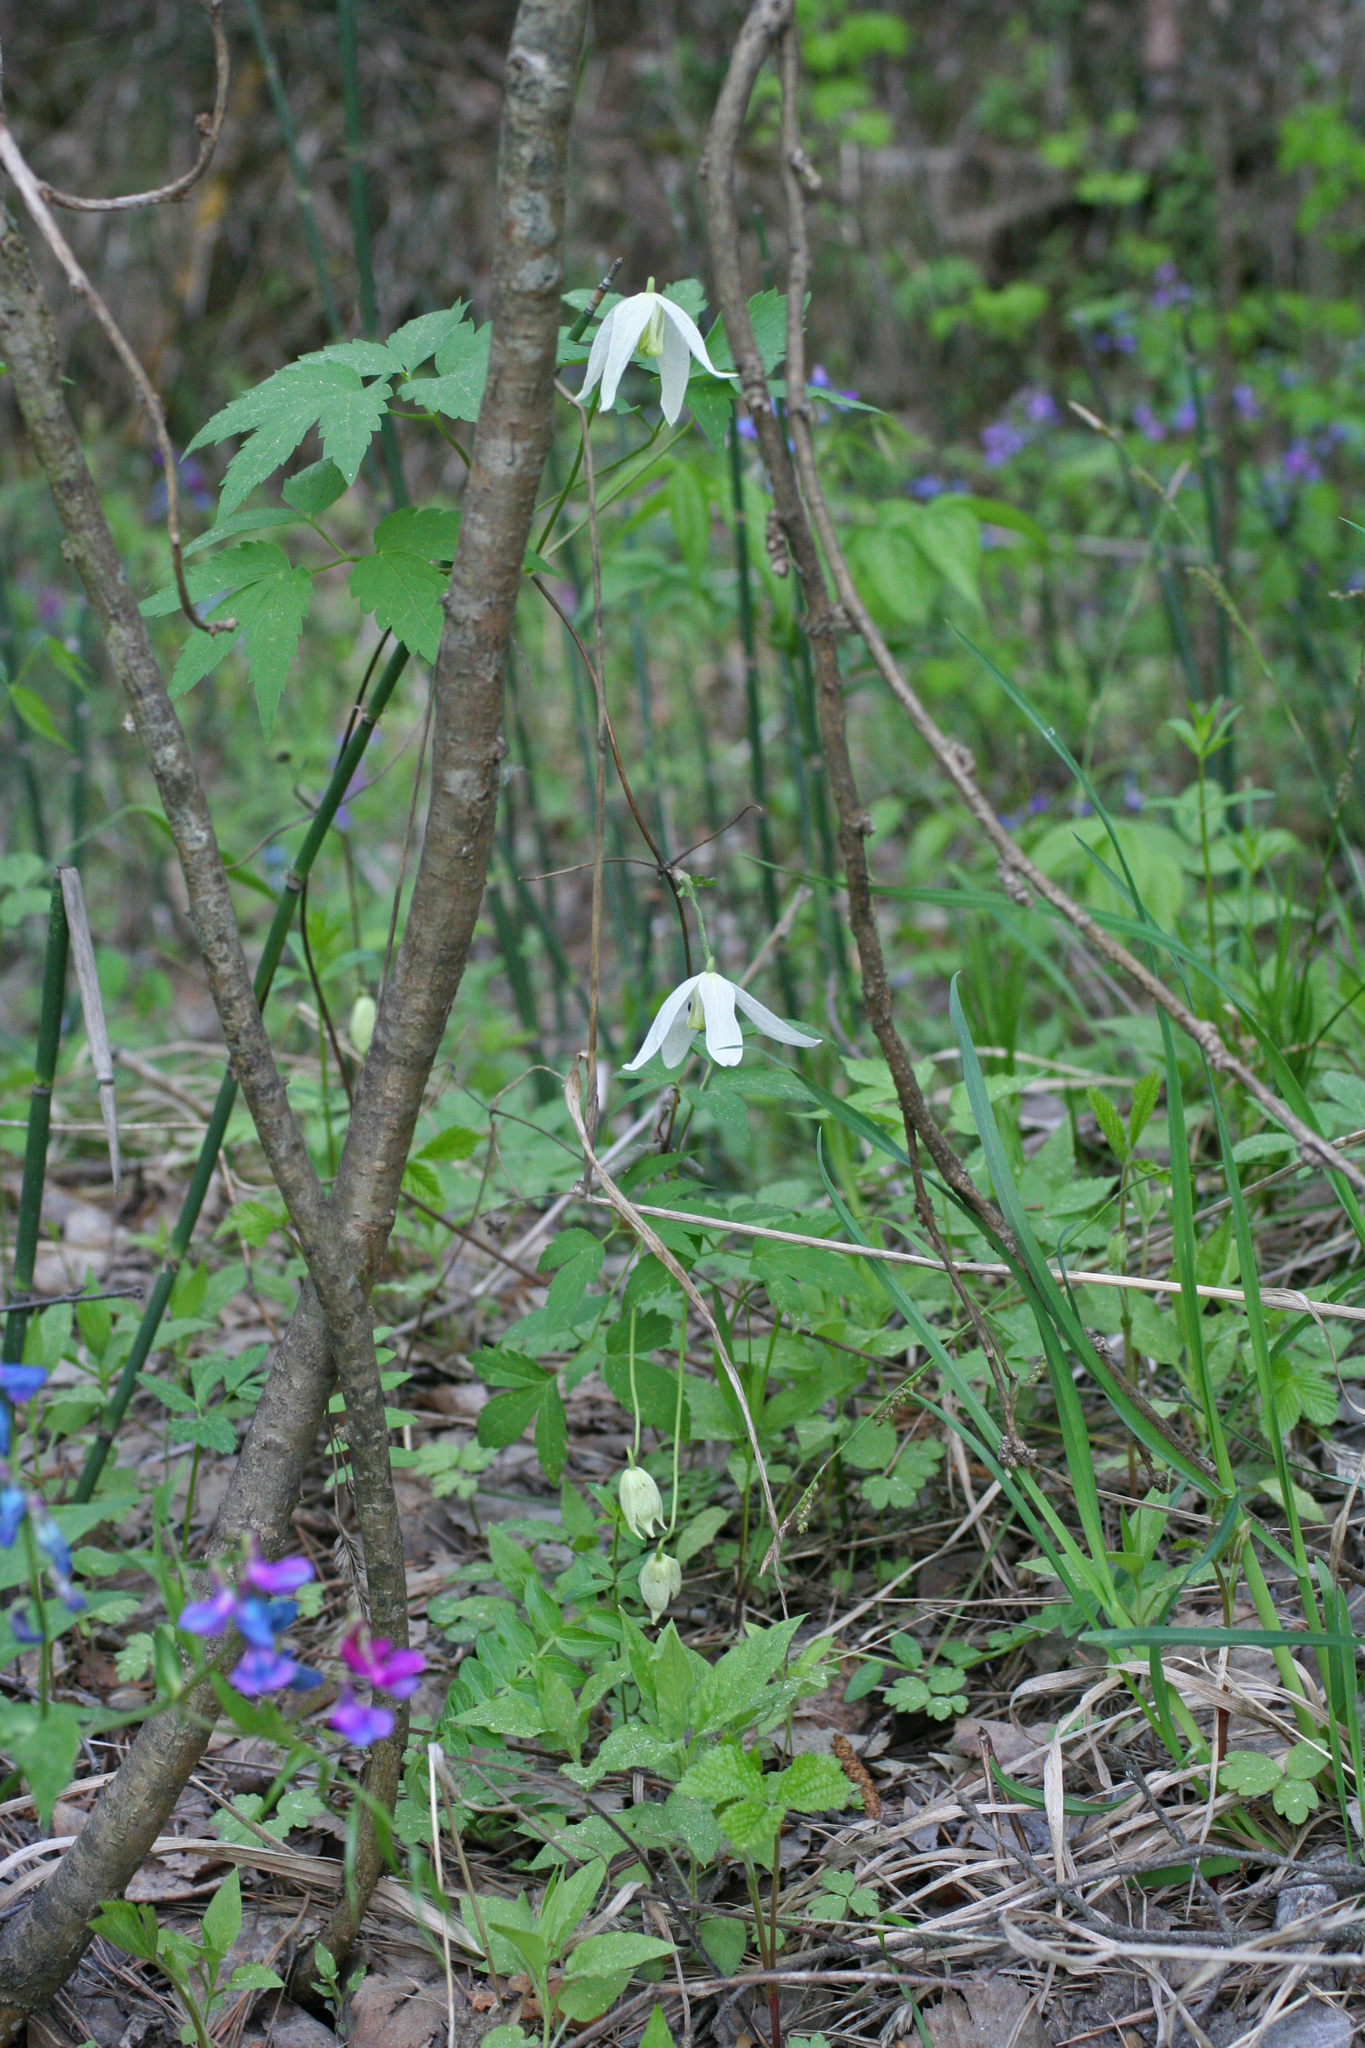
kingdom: Plantae
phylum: Tracheophyta
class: Magnoliopsida
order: Ranunculales
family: Ranunculaceae
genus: Clematis
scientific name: Clematis sibirica
